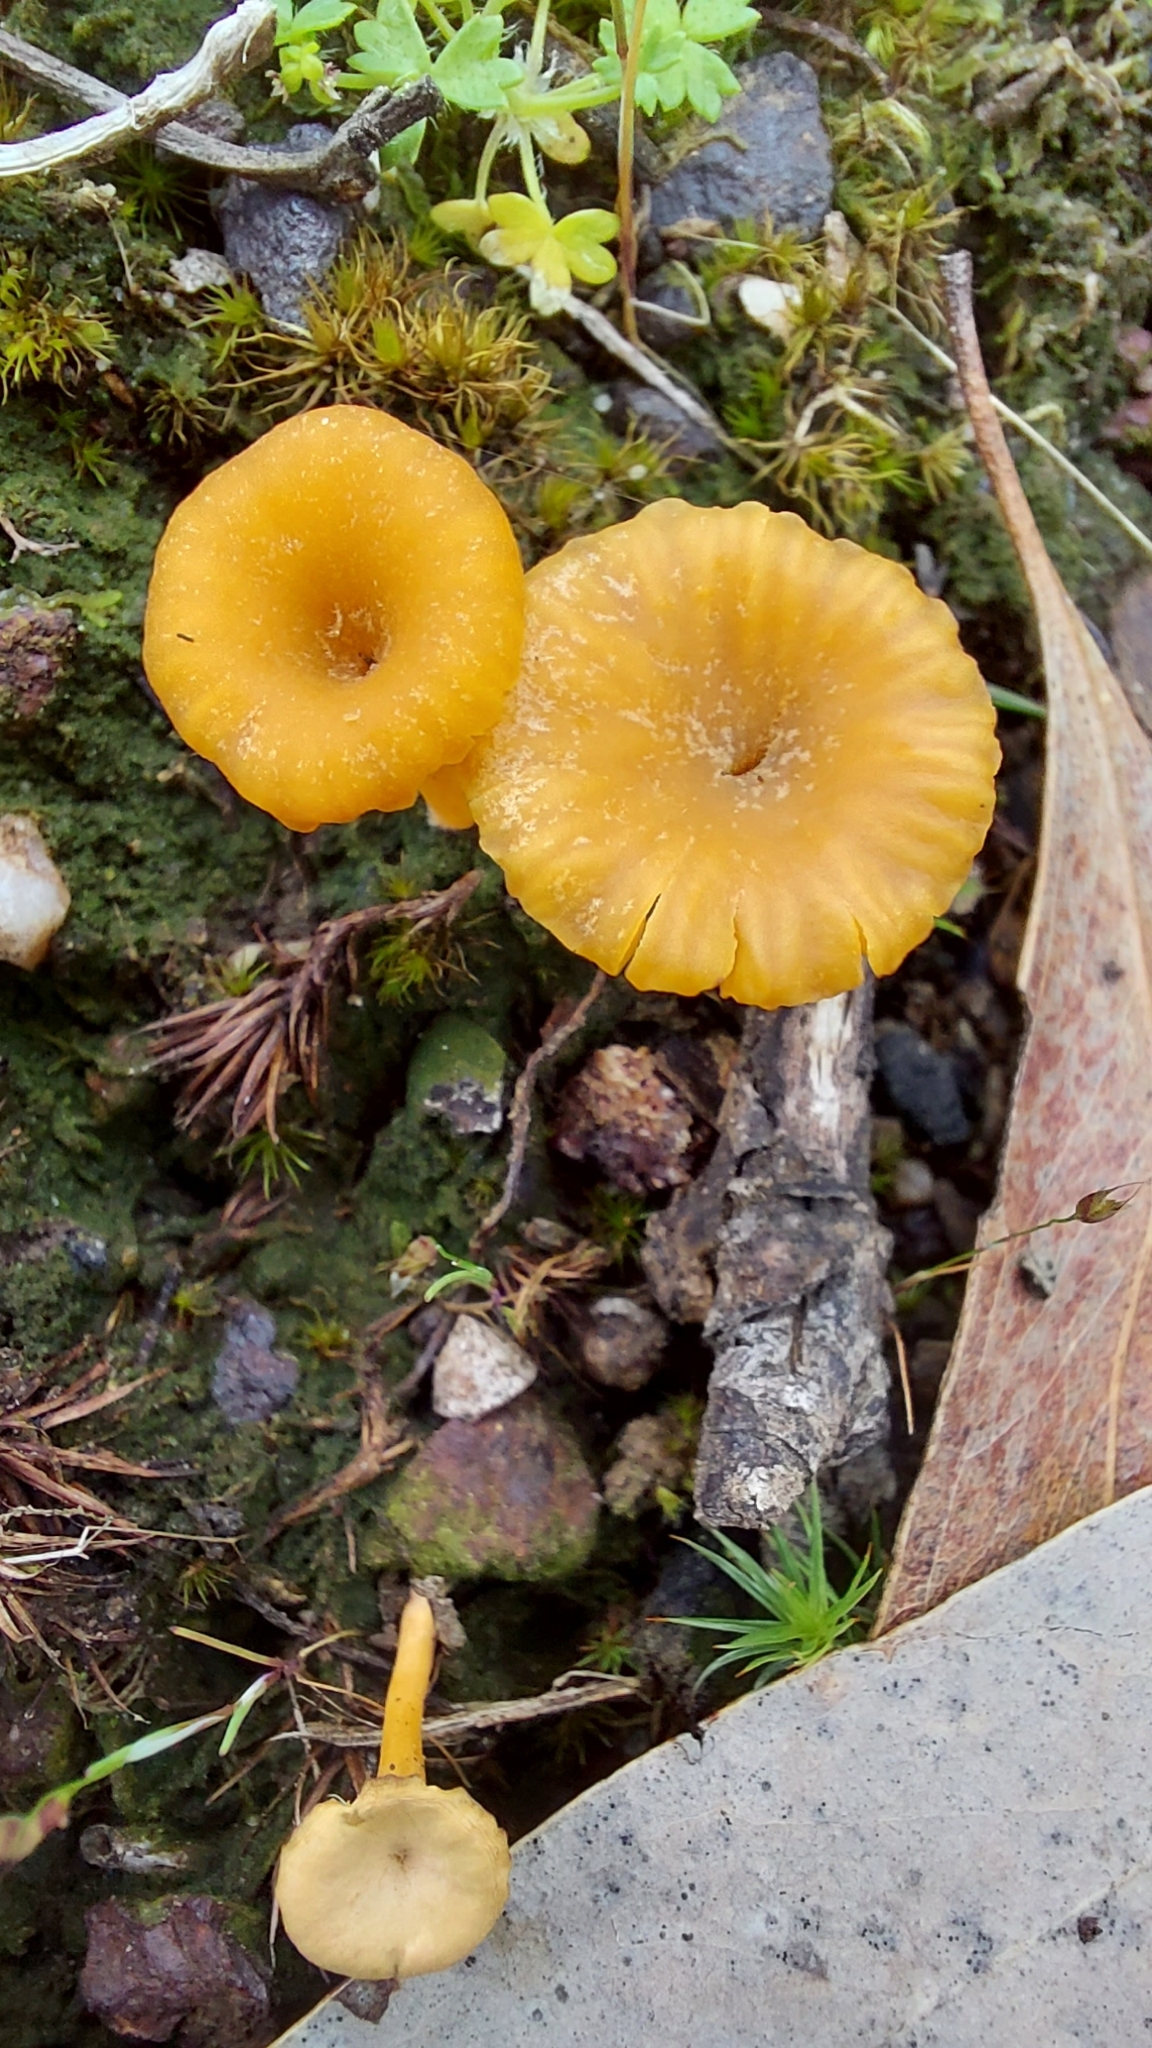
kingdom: Fungi
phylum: Basidiomycota
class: Agaricomycetes
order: Agaricales
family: Hygrophoraceae
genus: Lichenomphalia
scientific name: Lichenomphalia chromacea
